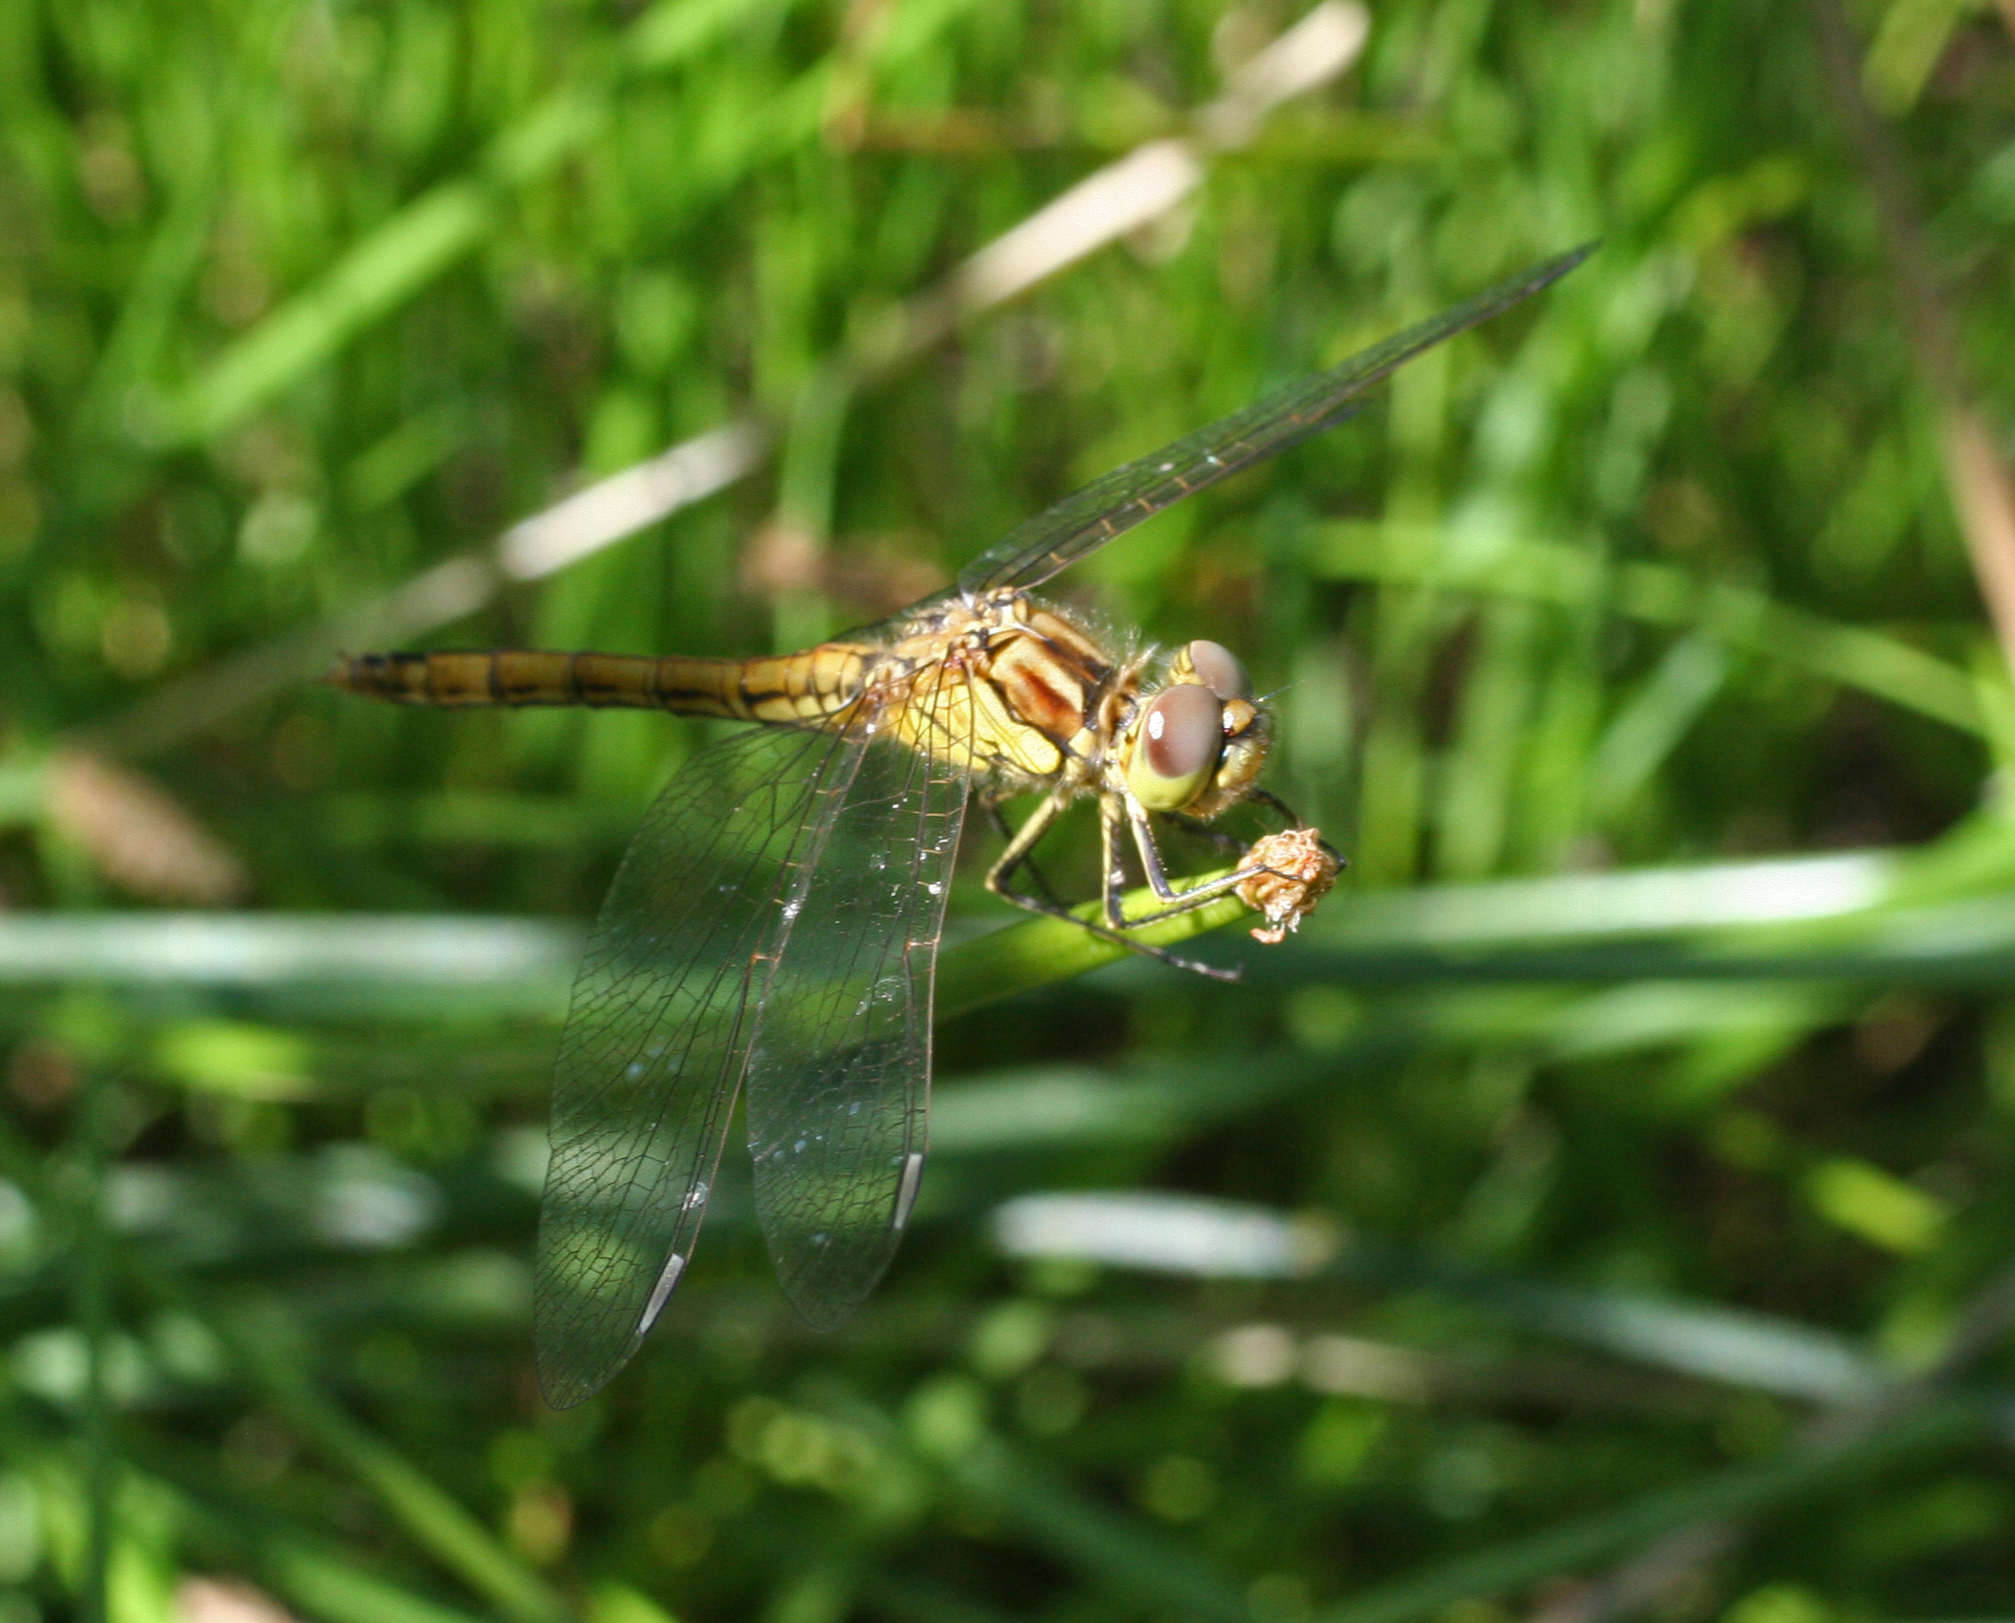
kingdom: Animalia
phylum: Arthropoda
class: Insecta
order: Odonata
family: Libellulidae
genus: Sympetrum
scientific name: Sympetrum vulgatum
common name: Vagrant darter
